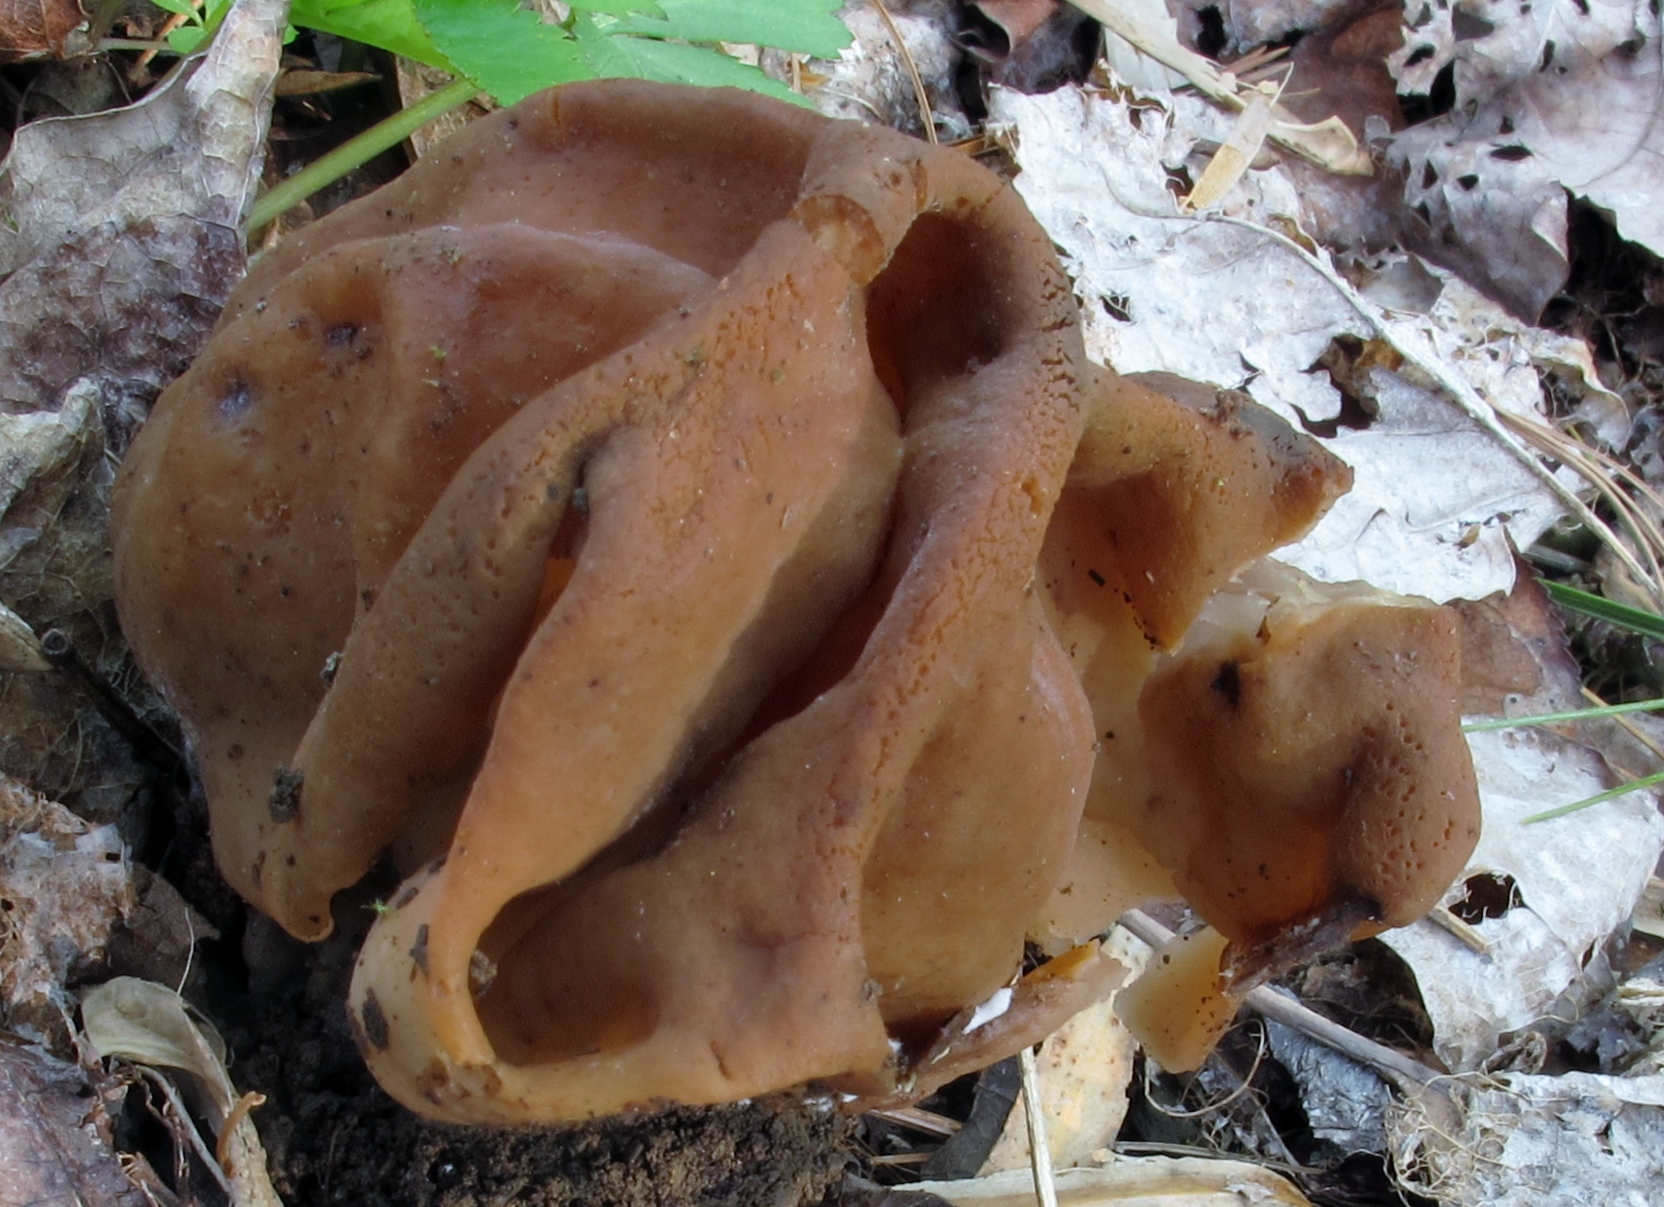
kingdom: Fungi
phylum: Ascomycota
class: Pezizomycetes
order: Pezizales
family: Discinaceae
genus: Gyromitra
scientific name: Gyromitra korfii
